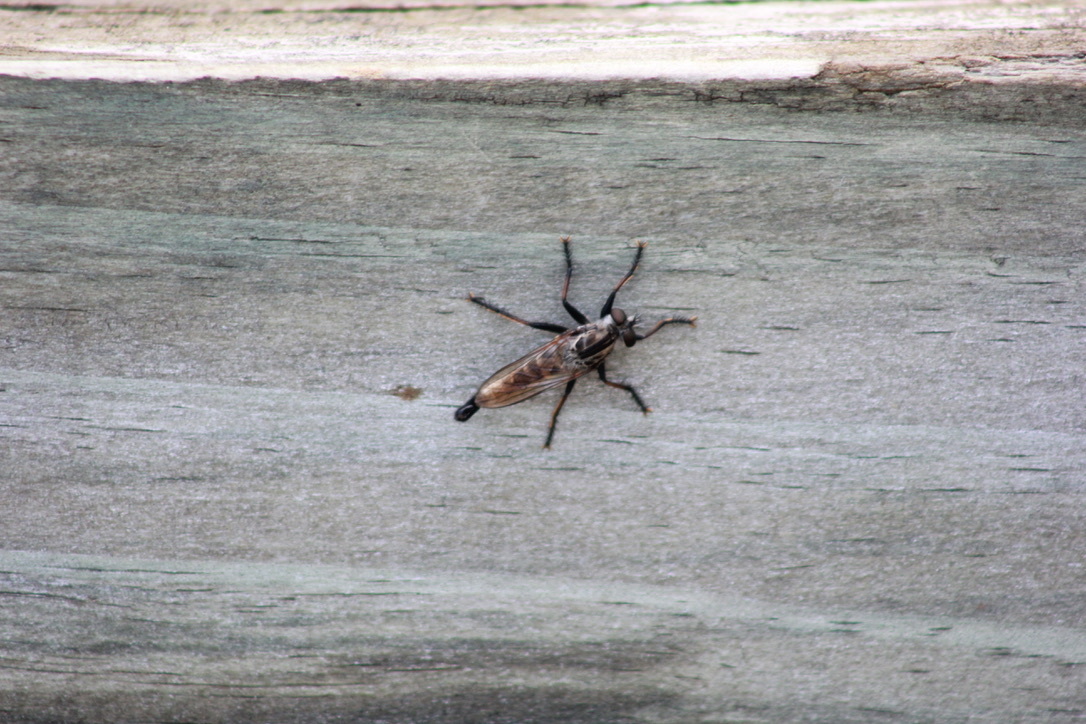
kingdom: Animalia
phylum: Arthropoda
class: Insecta
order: Diptera
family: Asilidae
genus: Efferia
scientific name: Efferia aestuans
